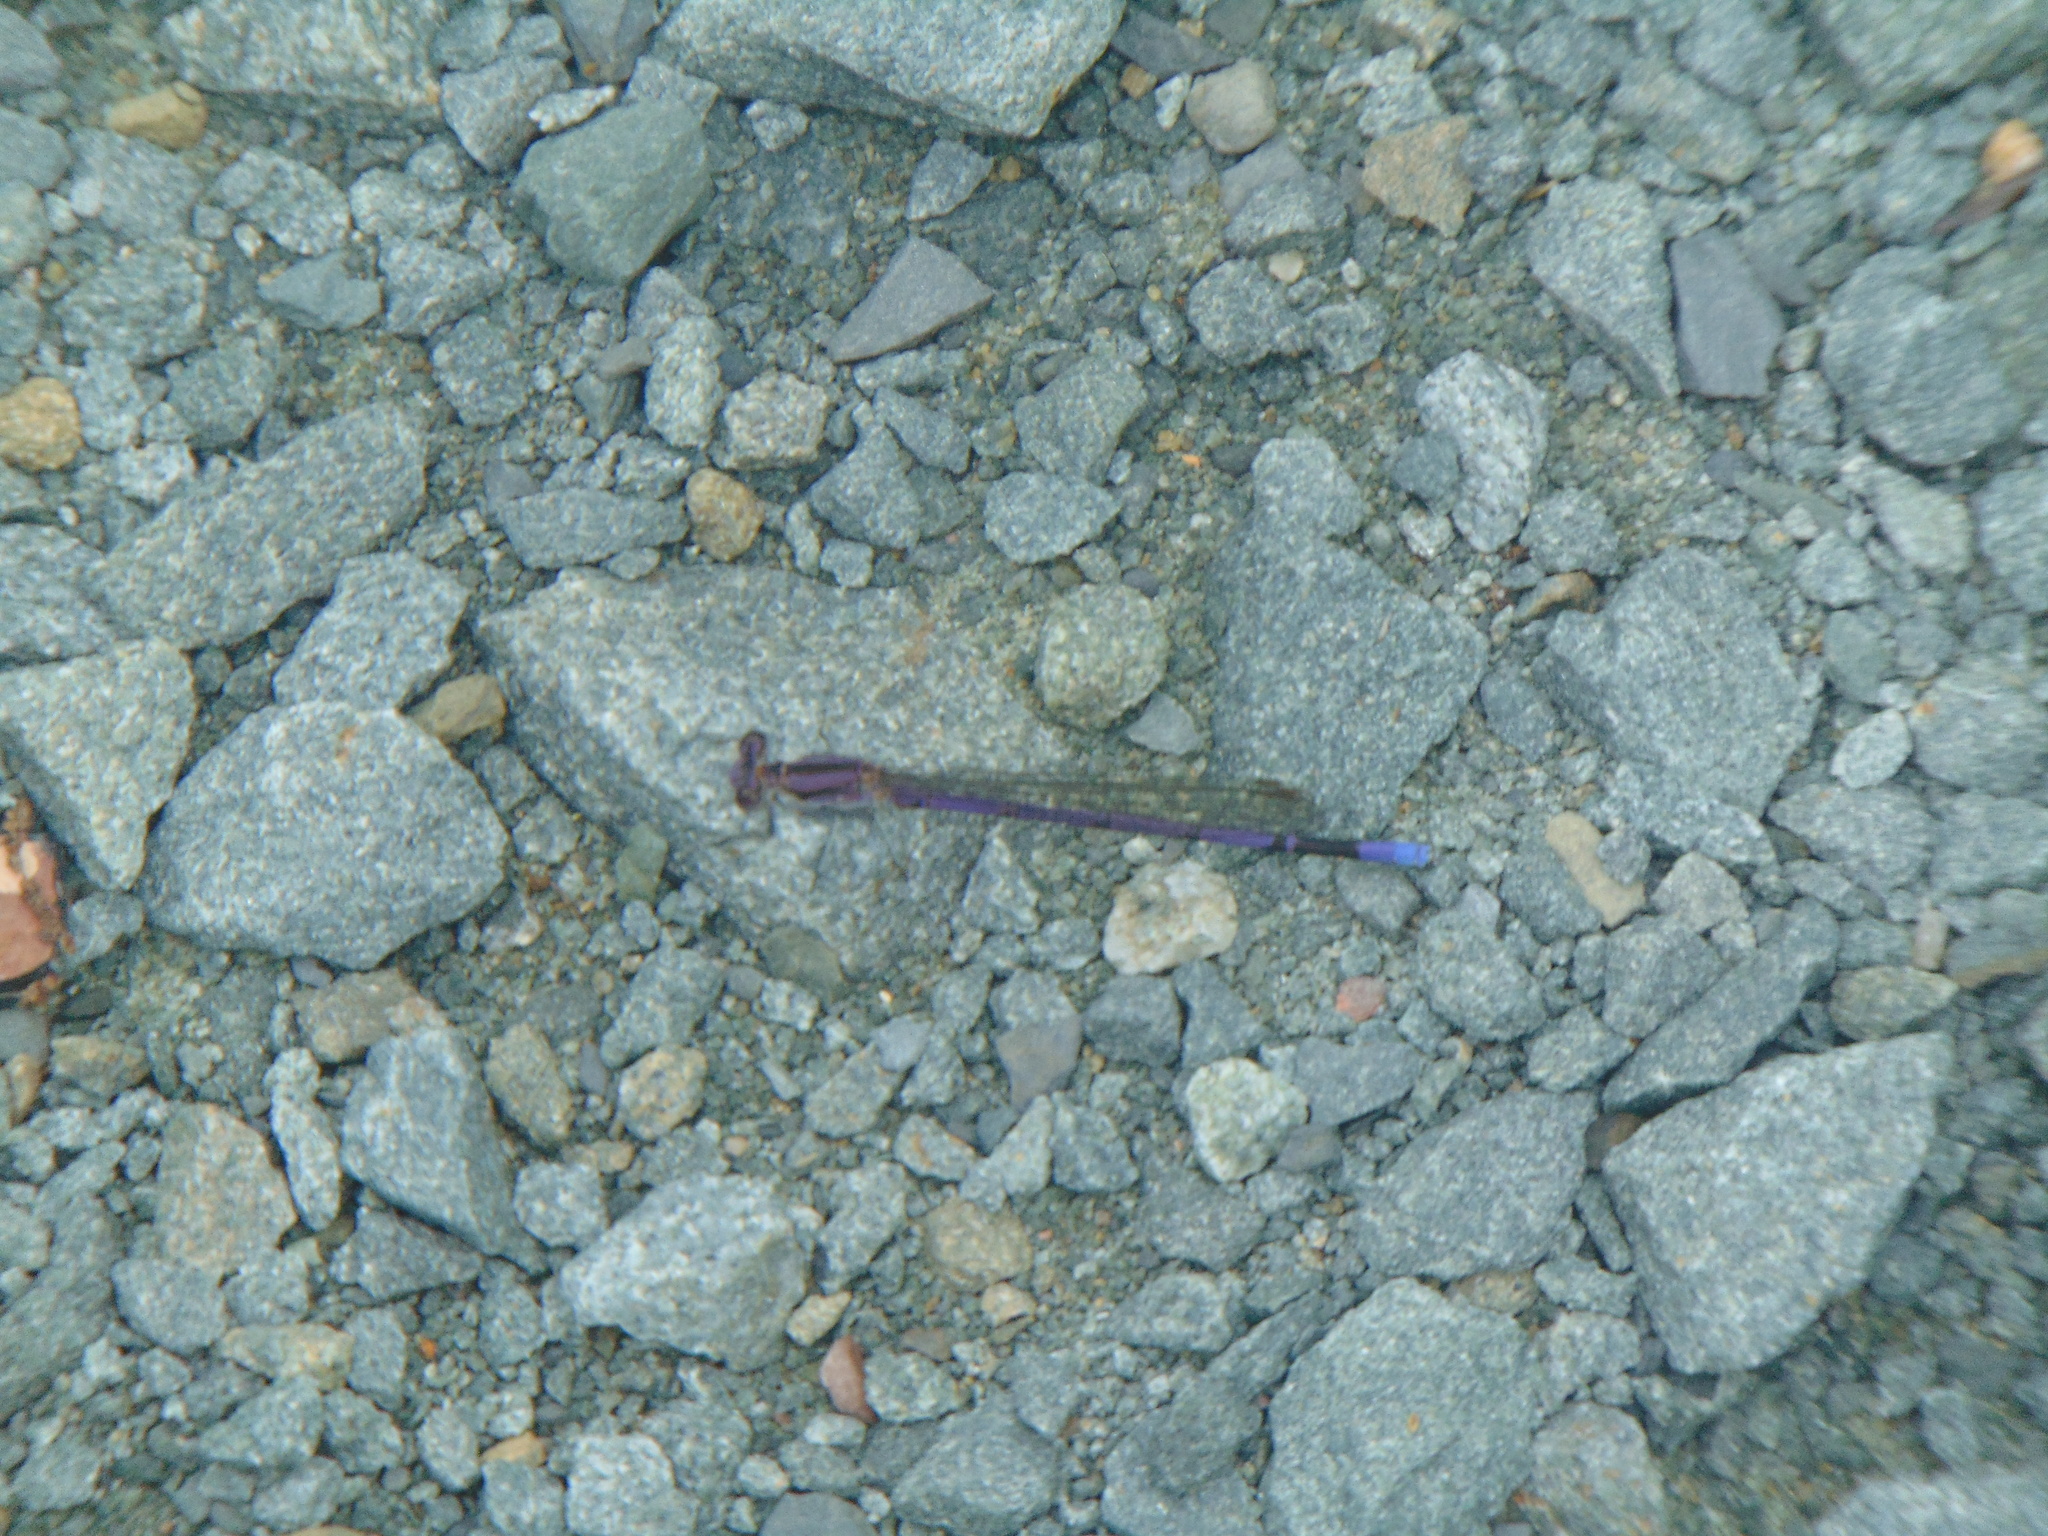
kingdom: Animalia
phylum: Arthropoda
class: Insecta
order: Odonata
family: Coenagrionidae
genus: Argia
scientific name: Argia fumipennis
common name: Variable dancer
